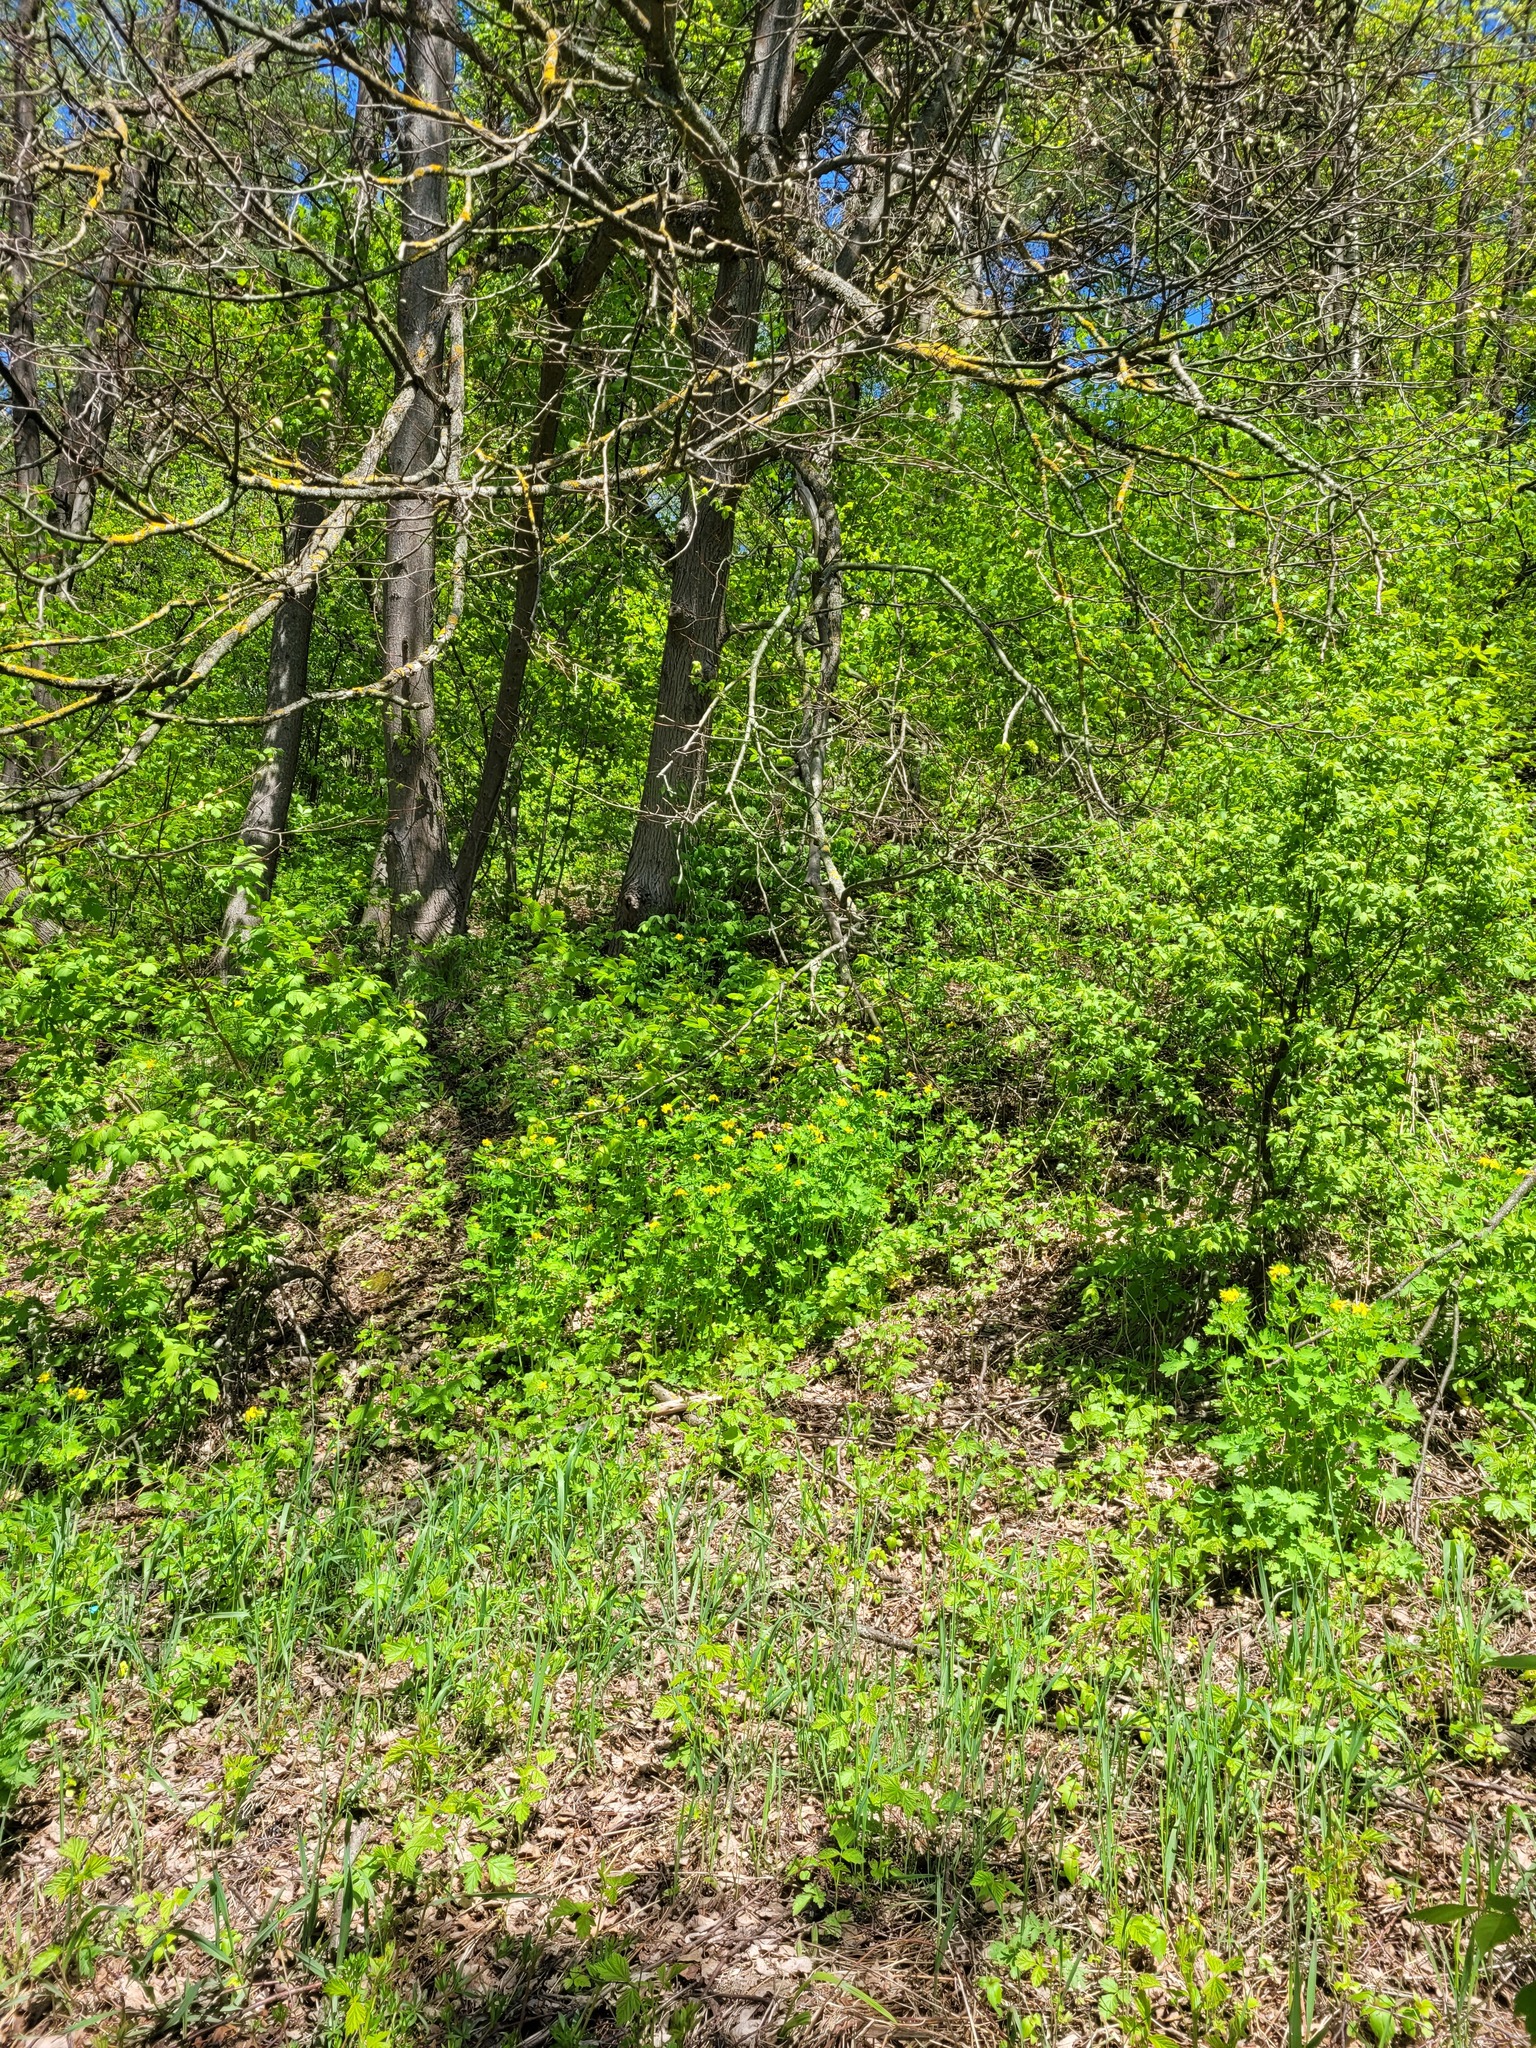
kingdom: Plantae
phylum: Tracheophyta
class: Magnoliopsida
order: Ranunculales
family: Papaveraceae
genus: Chelidonium
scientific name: Chelidonium majus
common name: Greater celandine
